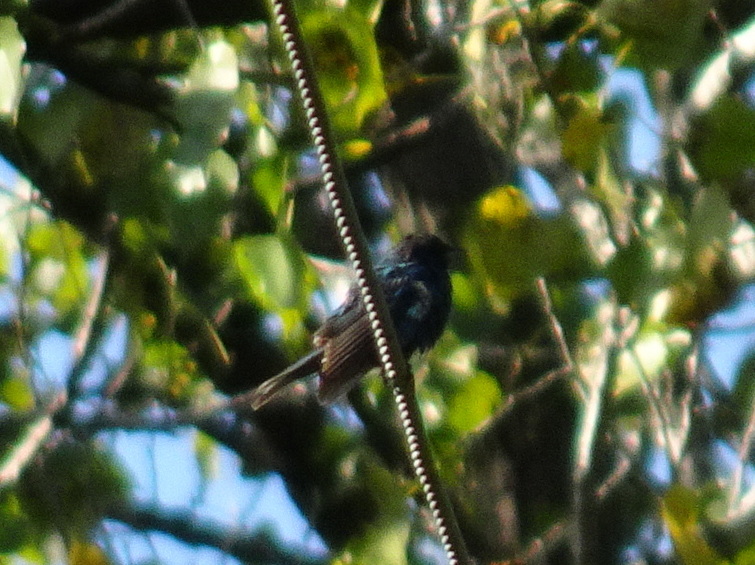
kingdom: Animalia
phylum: Chordata
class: Aves
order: Passeriformes
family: Cardinalidae
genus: Passerina
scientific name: Passerina cyanea
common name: Indigo bunting
